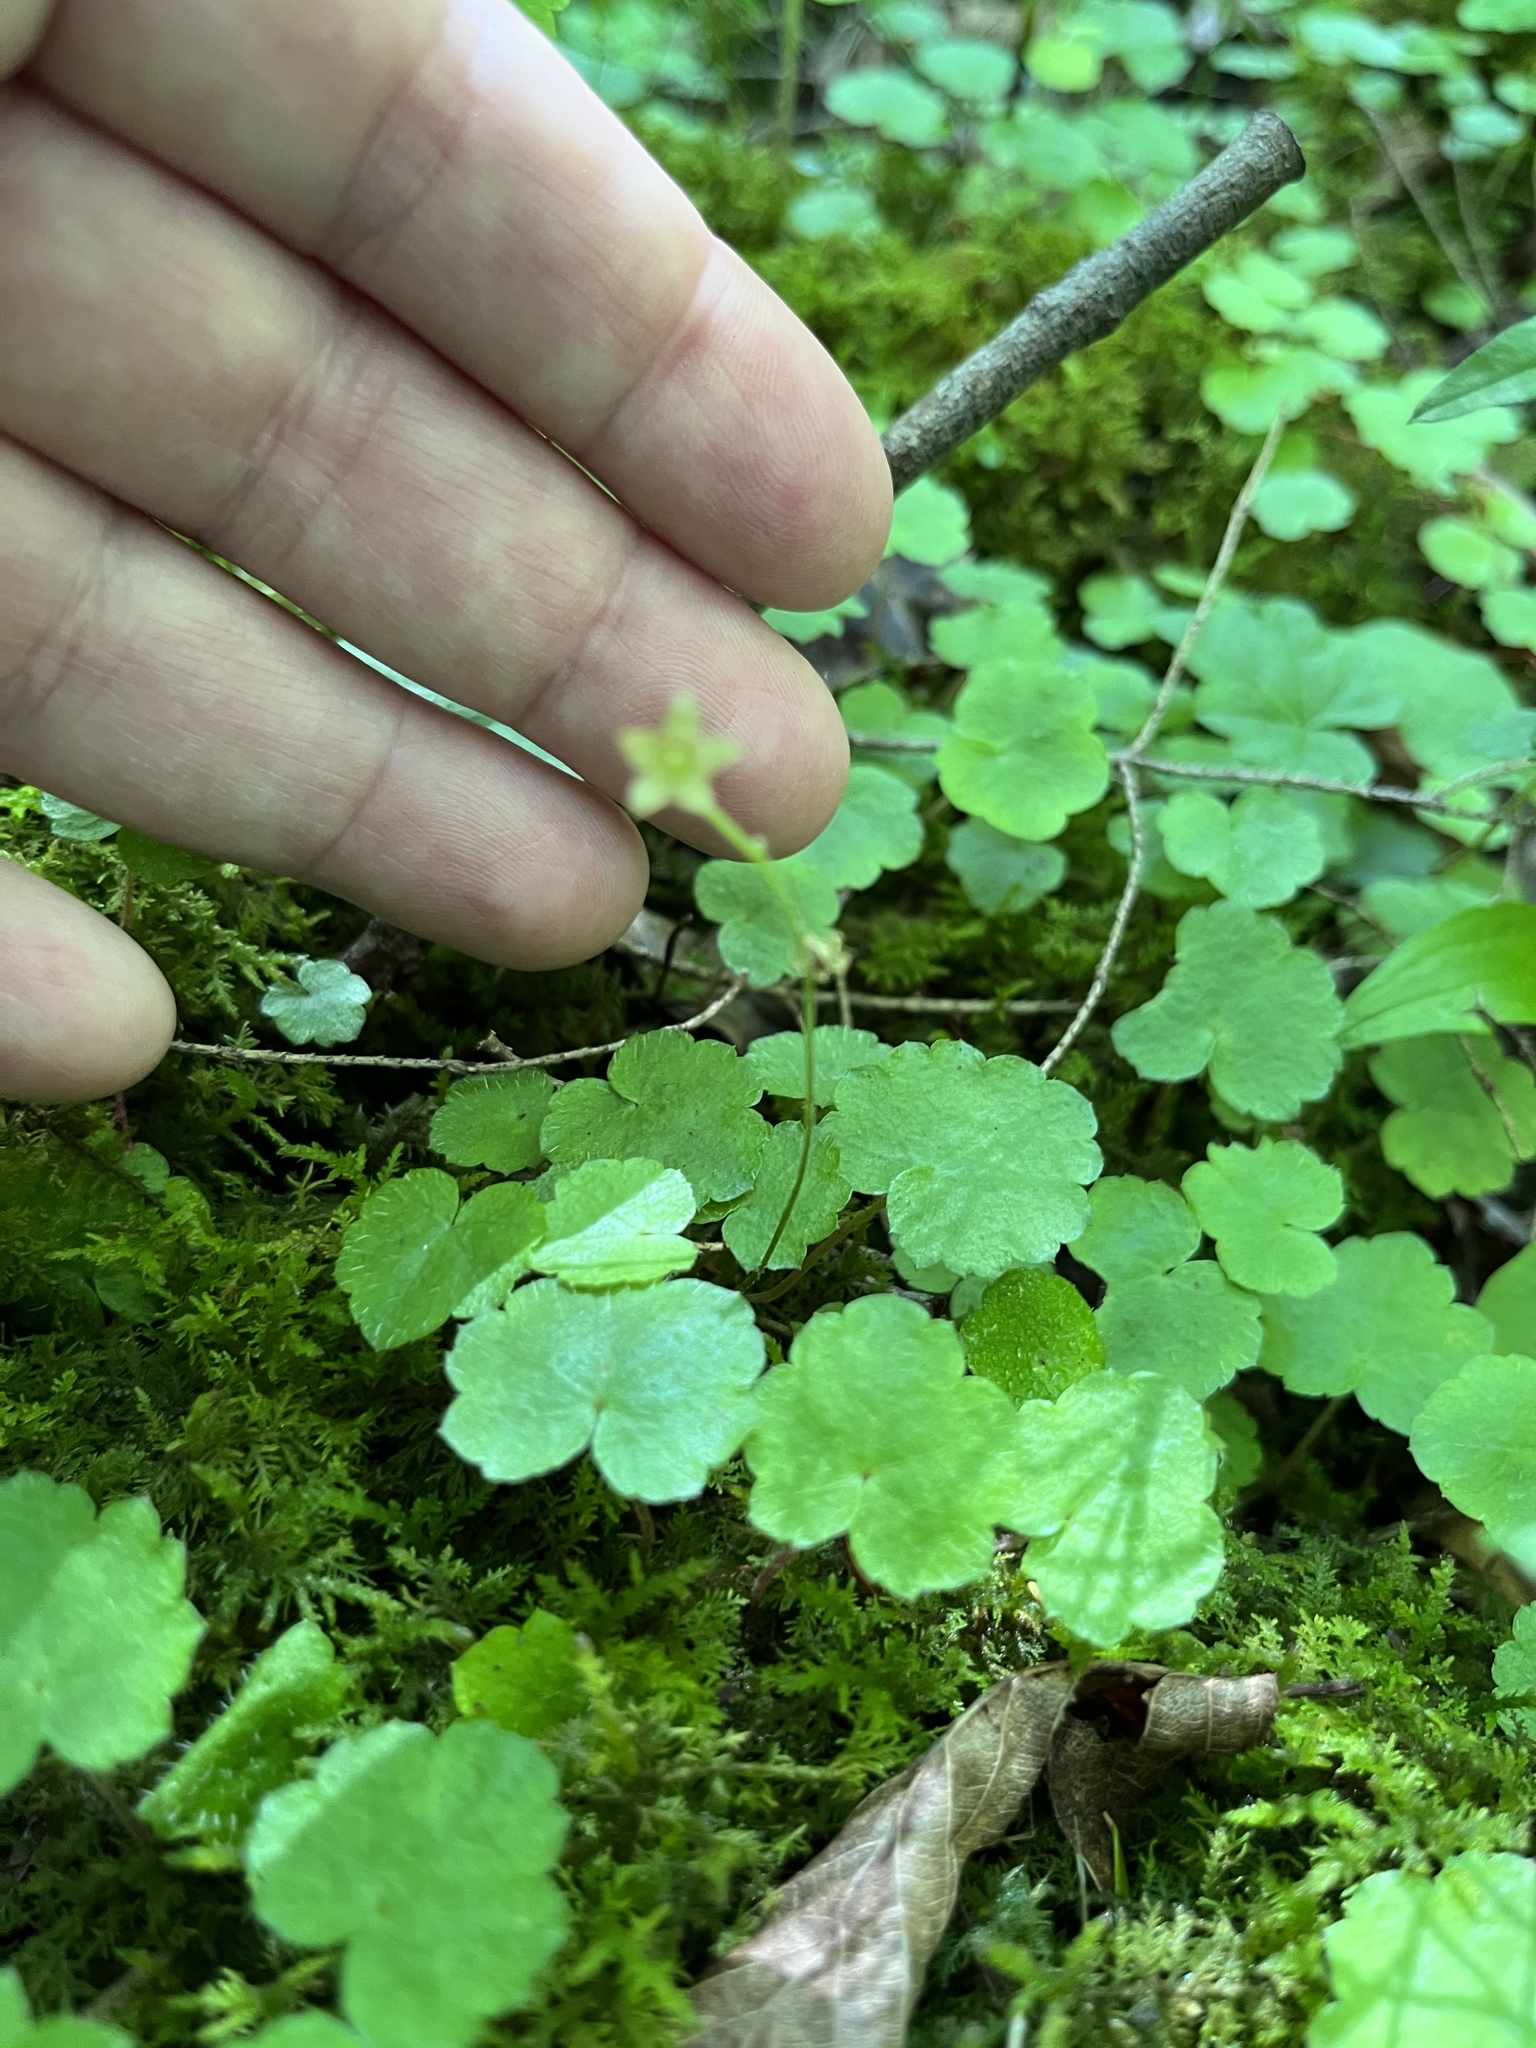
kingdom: Plantae
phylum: Tracheophyta
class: Magnoliopsida
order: Saxifragales
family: Saxifragaceae
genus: Mitella
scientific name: Mitella nuda
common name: Bare-stemmed bishop's-cap
